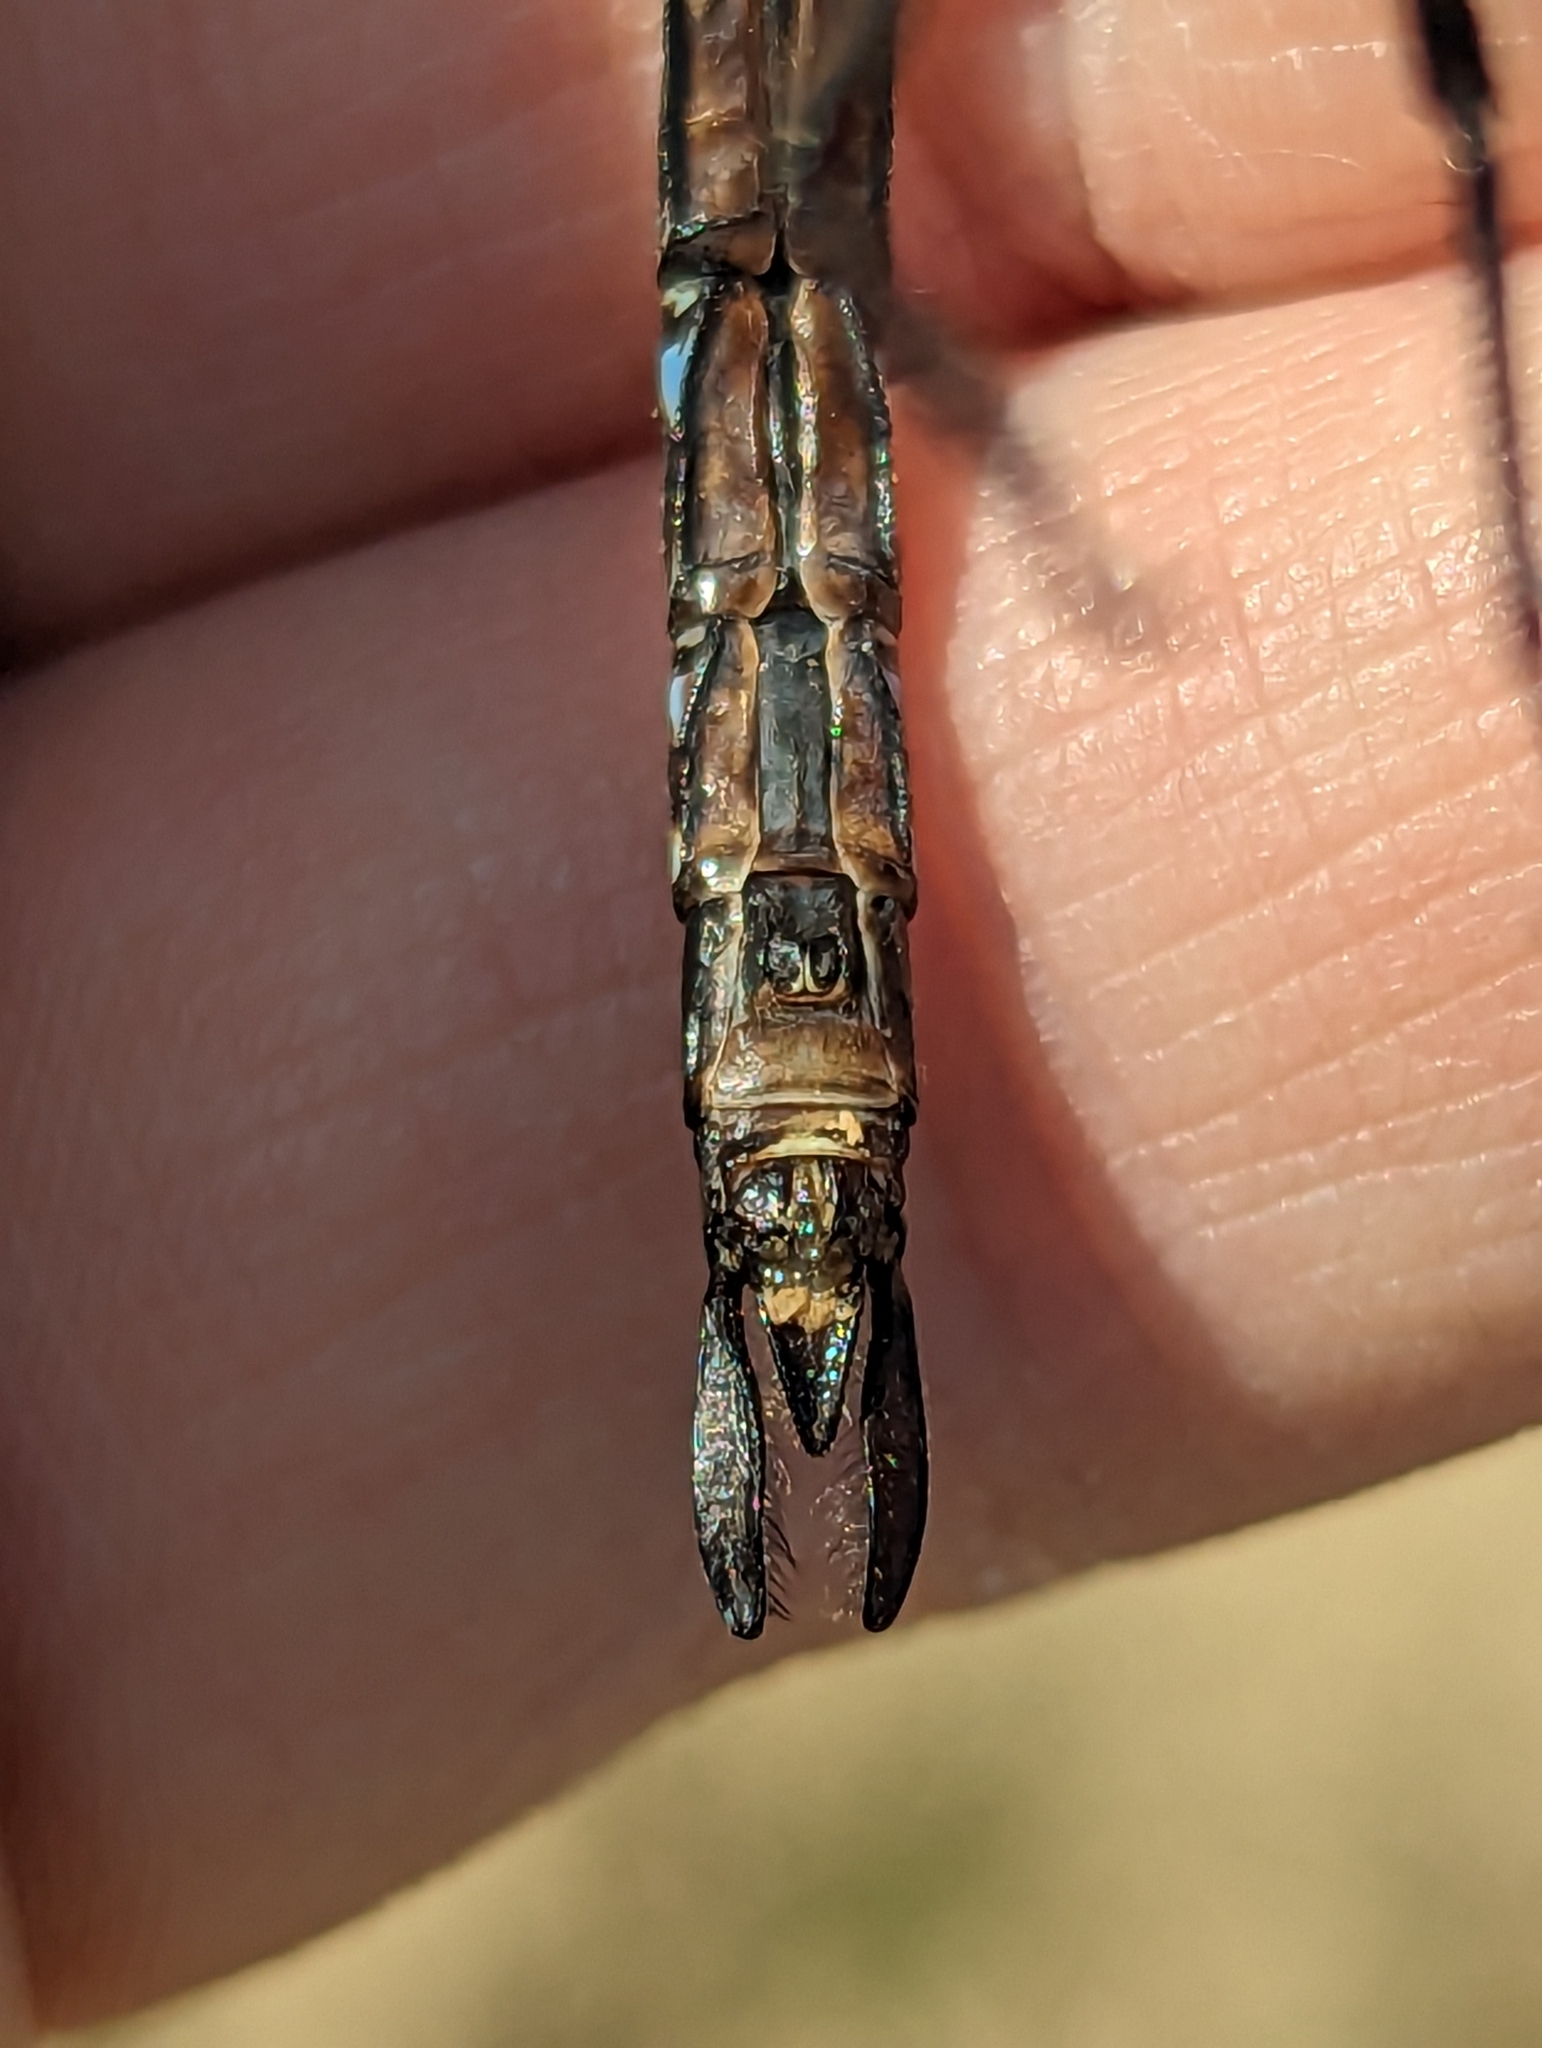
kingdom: Animalia
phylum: Arthropoda
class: Insecta
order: Odonata
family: Aeshnidae
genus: Aeshna
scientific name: Aeshna eremita
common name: Lake darner
